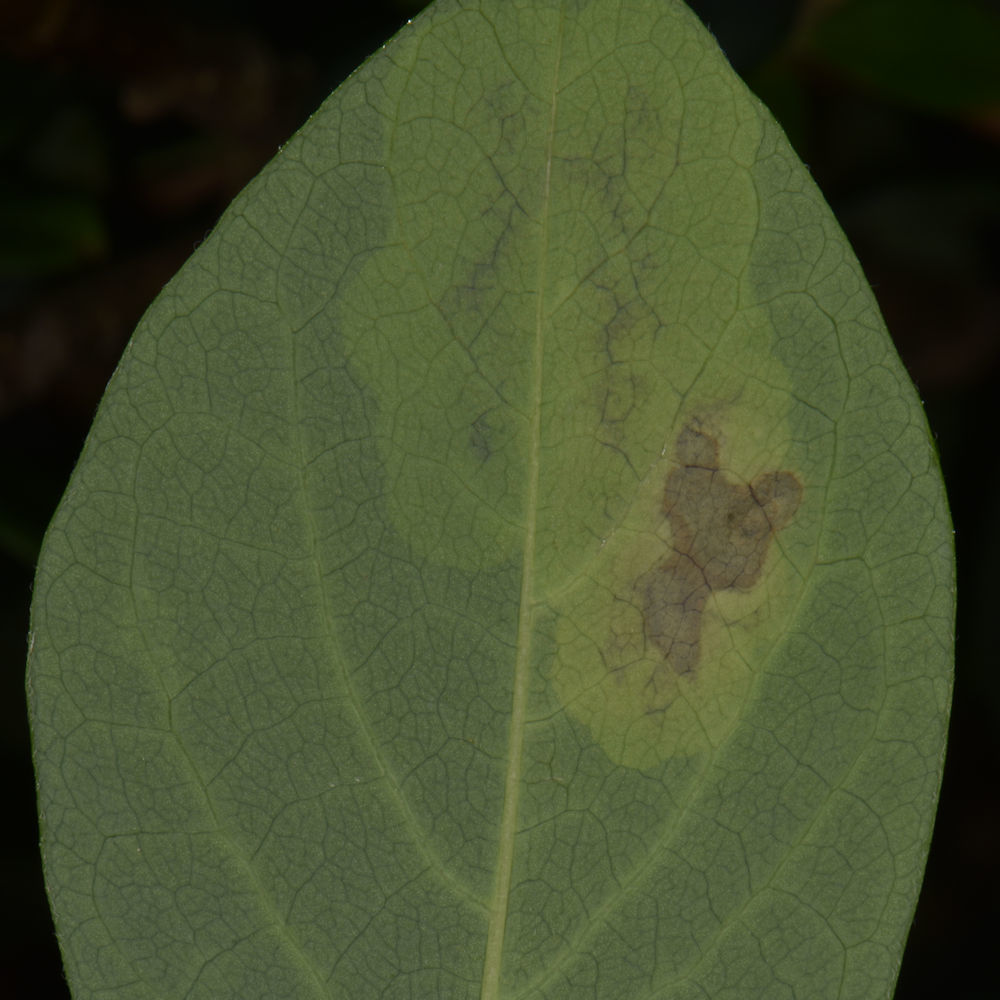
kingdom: Animalia
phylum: Arthropoda
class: Insecta
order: Lepidoptera
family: Gracillariidae
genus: Leucanthiza
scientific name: Leucanthiza dircella
